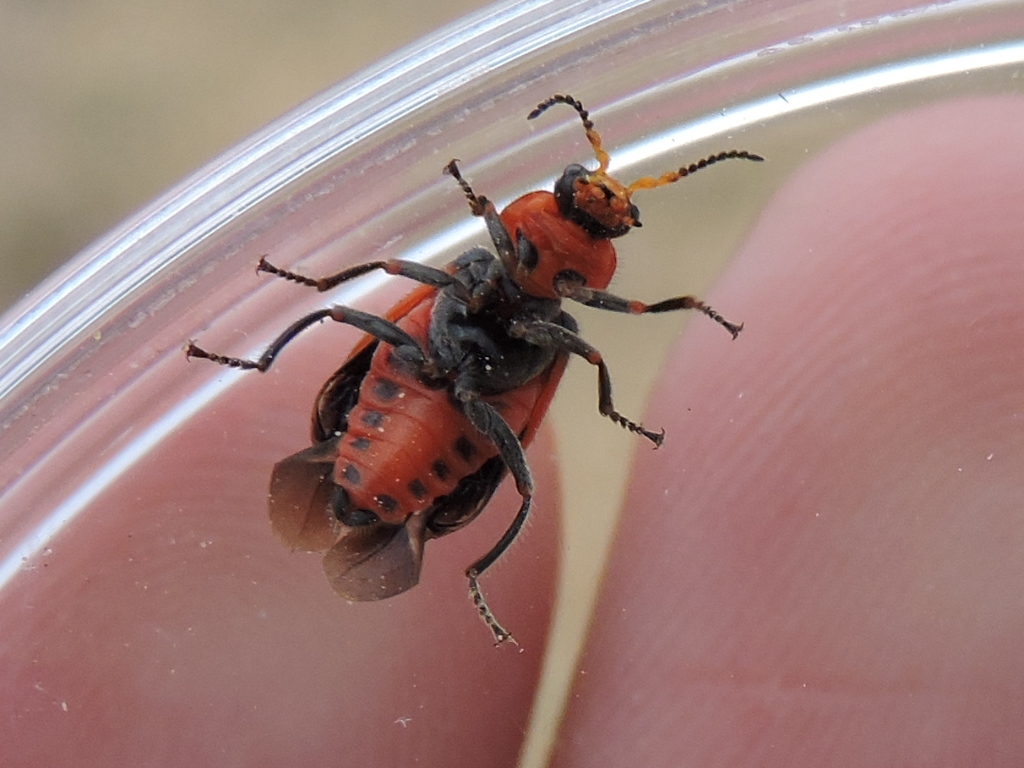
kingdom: Animalia
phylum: Arthropoda
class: Insecta
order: Coleoptera
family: Melyridae
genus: Collops
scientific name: Collops
